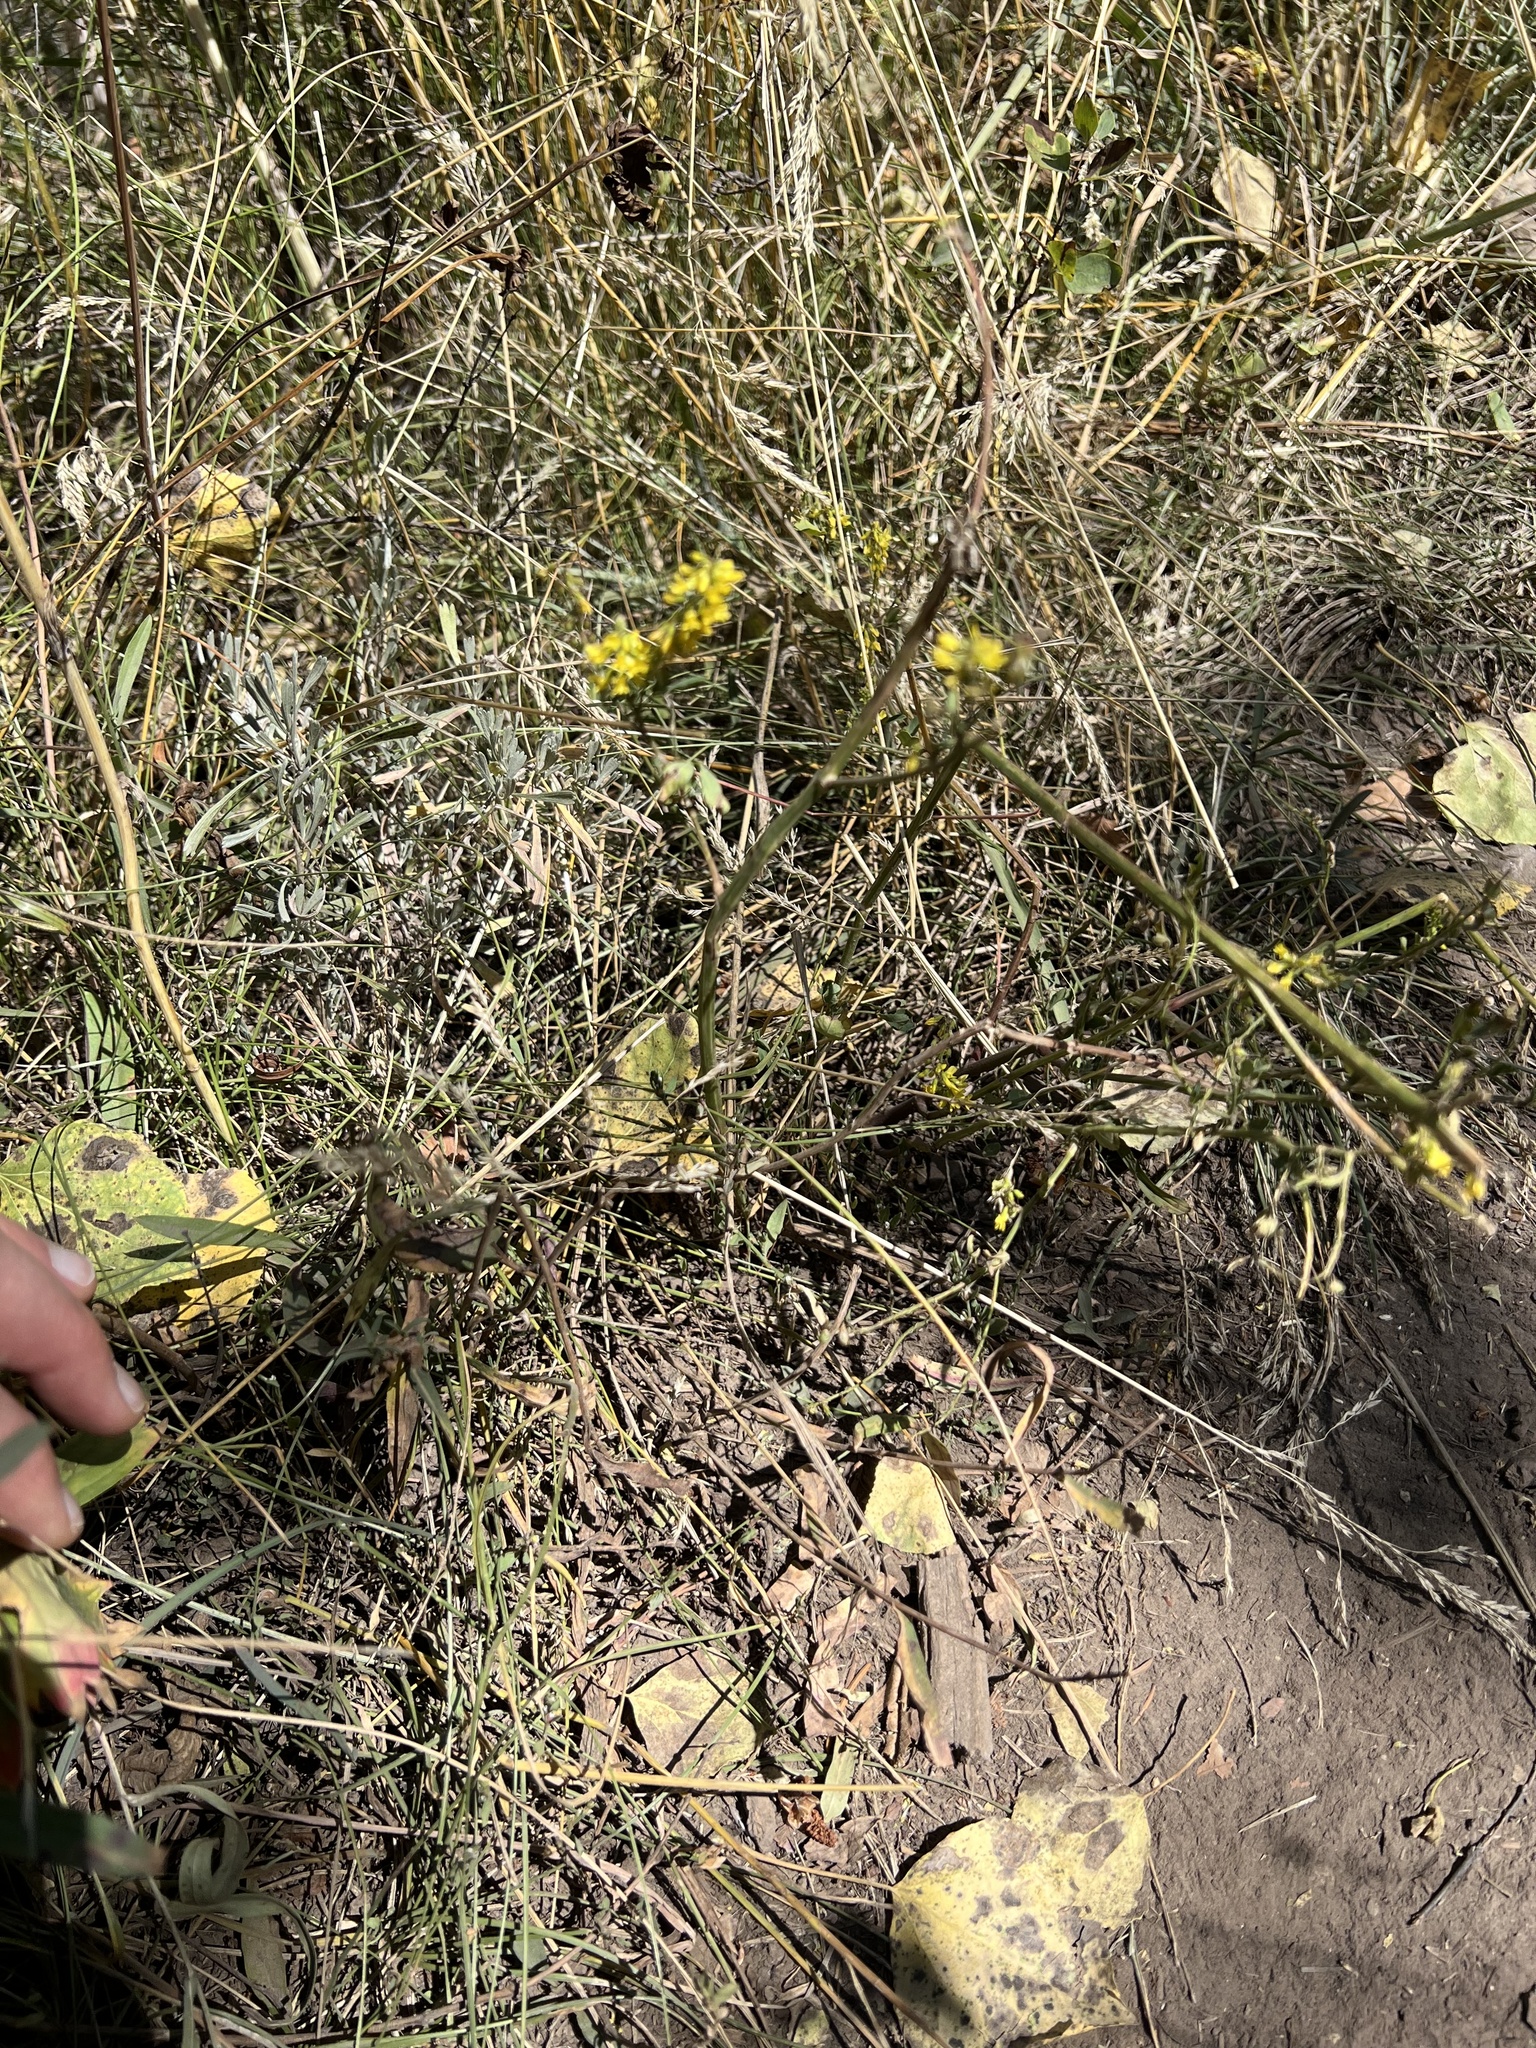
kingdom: Plantae
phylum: Tracheophyta
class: Magnoliopsida
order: Fabales
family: Fabaceae
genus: Melilotus
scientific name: Melilotus officinalis
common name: Sweetclover
